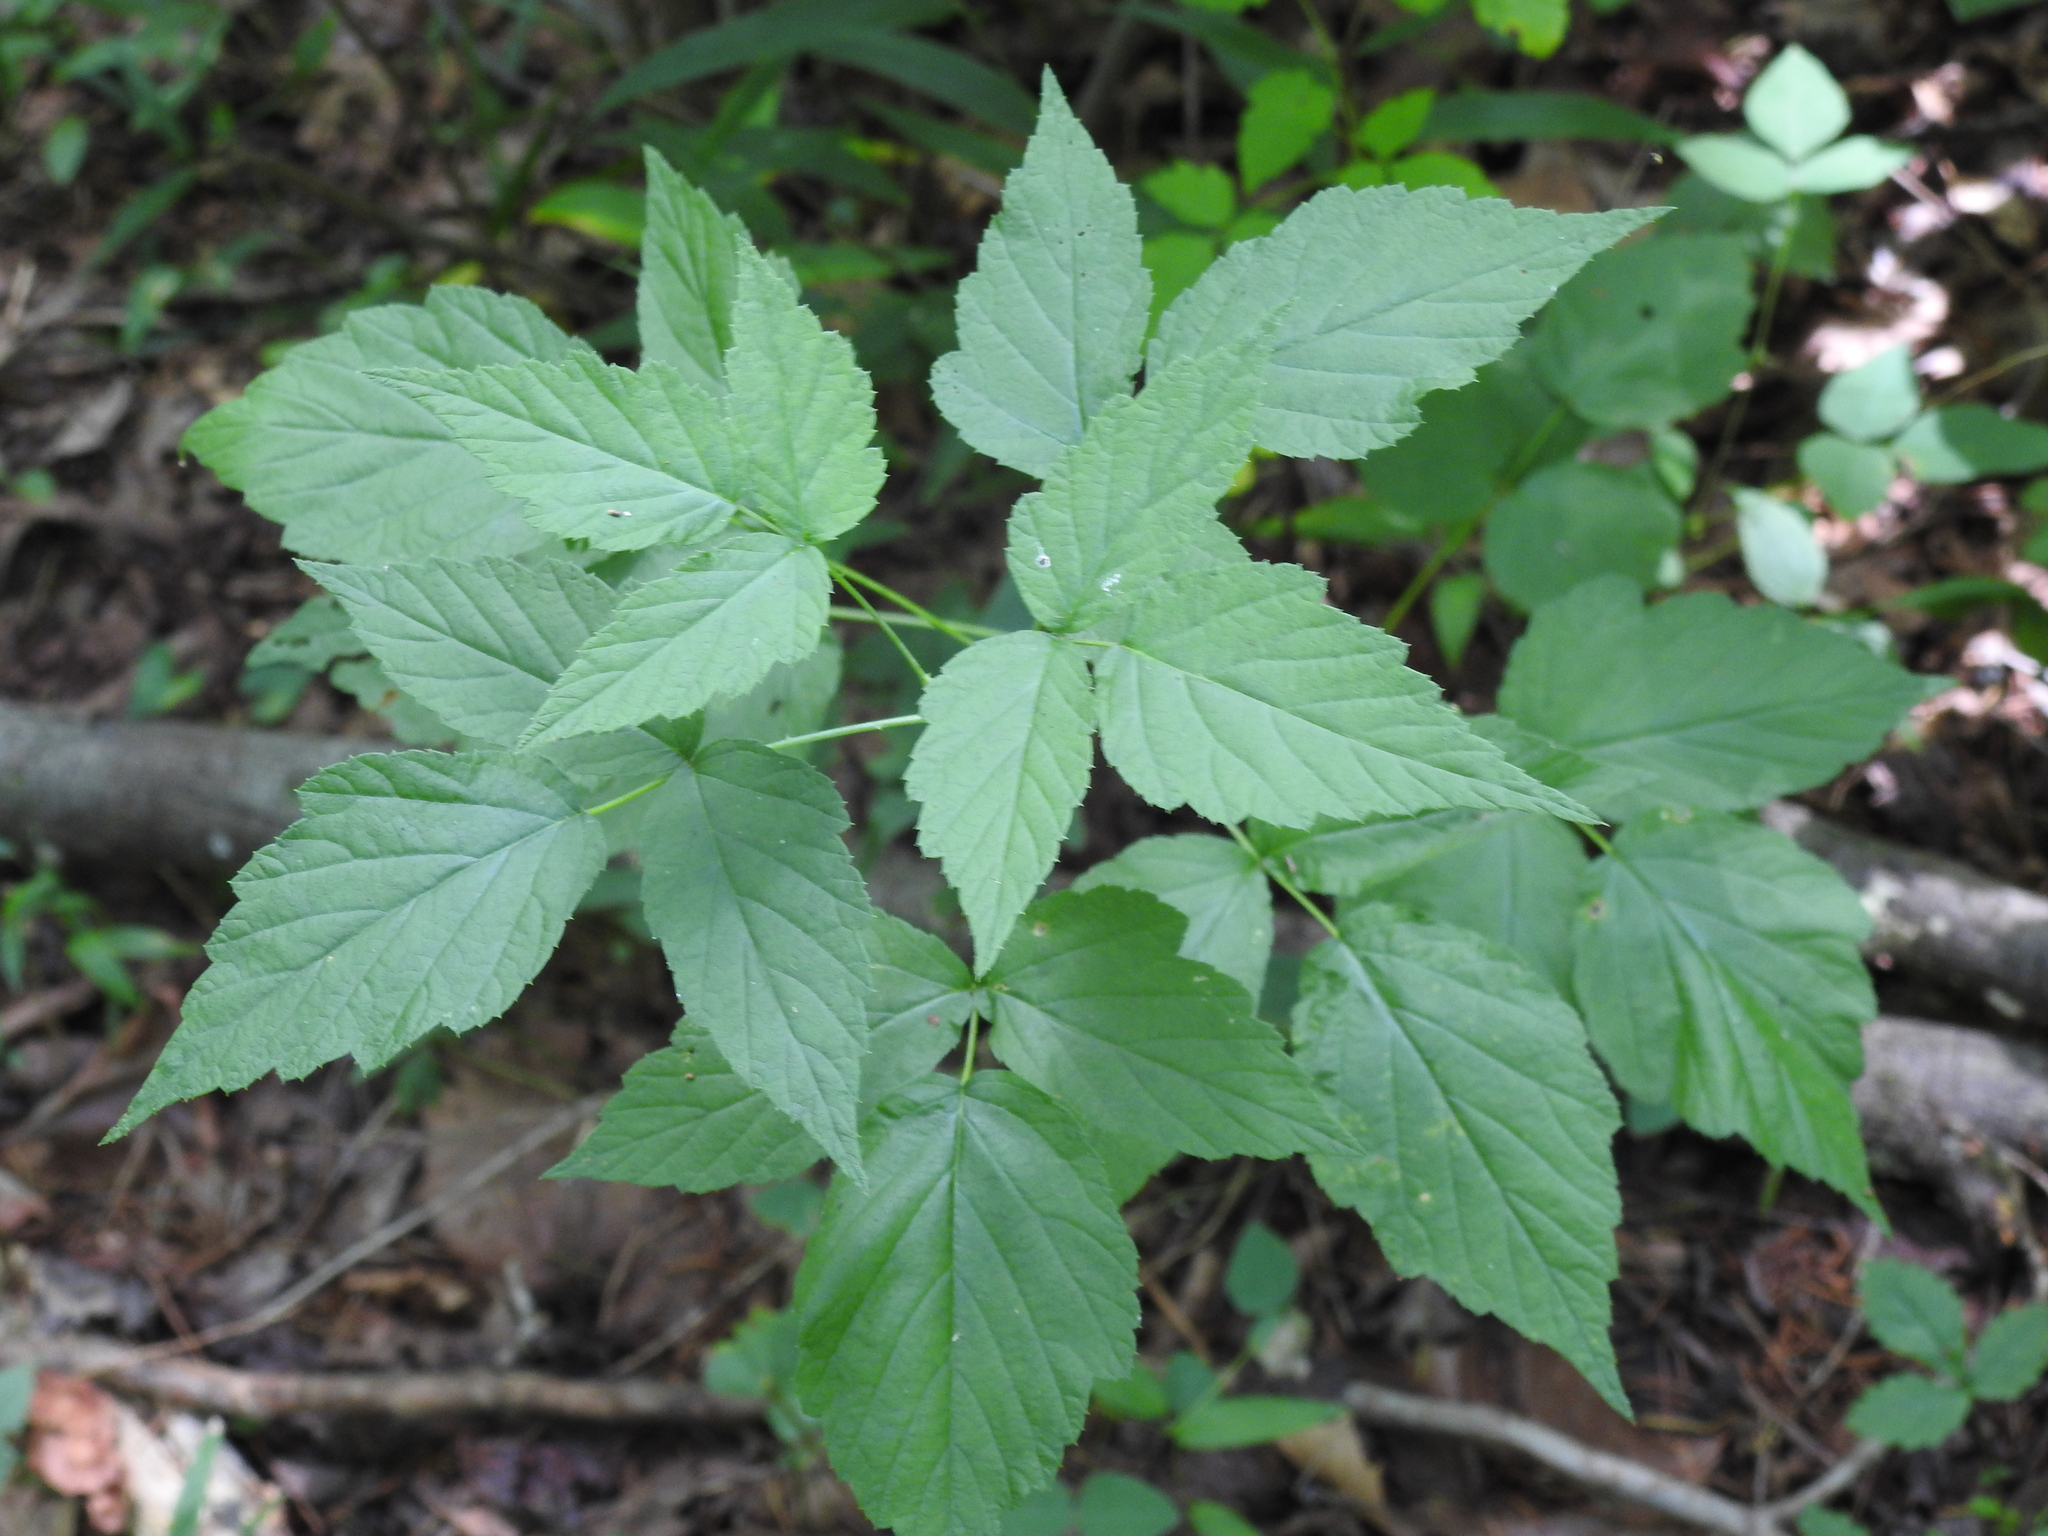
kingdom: Plantae
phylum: Tracheophyta
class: Magnoliopsida
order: Rosales
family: Rosaceae
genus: Rubus
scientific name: Rubus occidentalis
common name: Black raspberry
